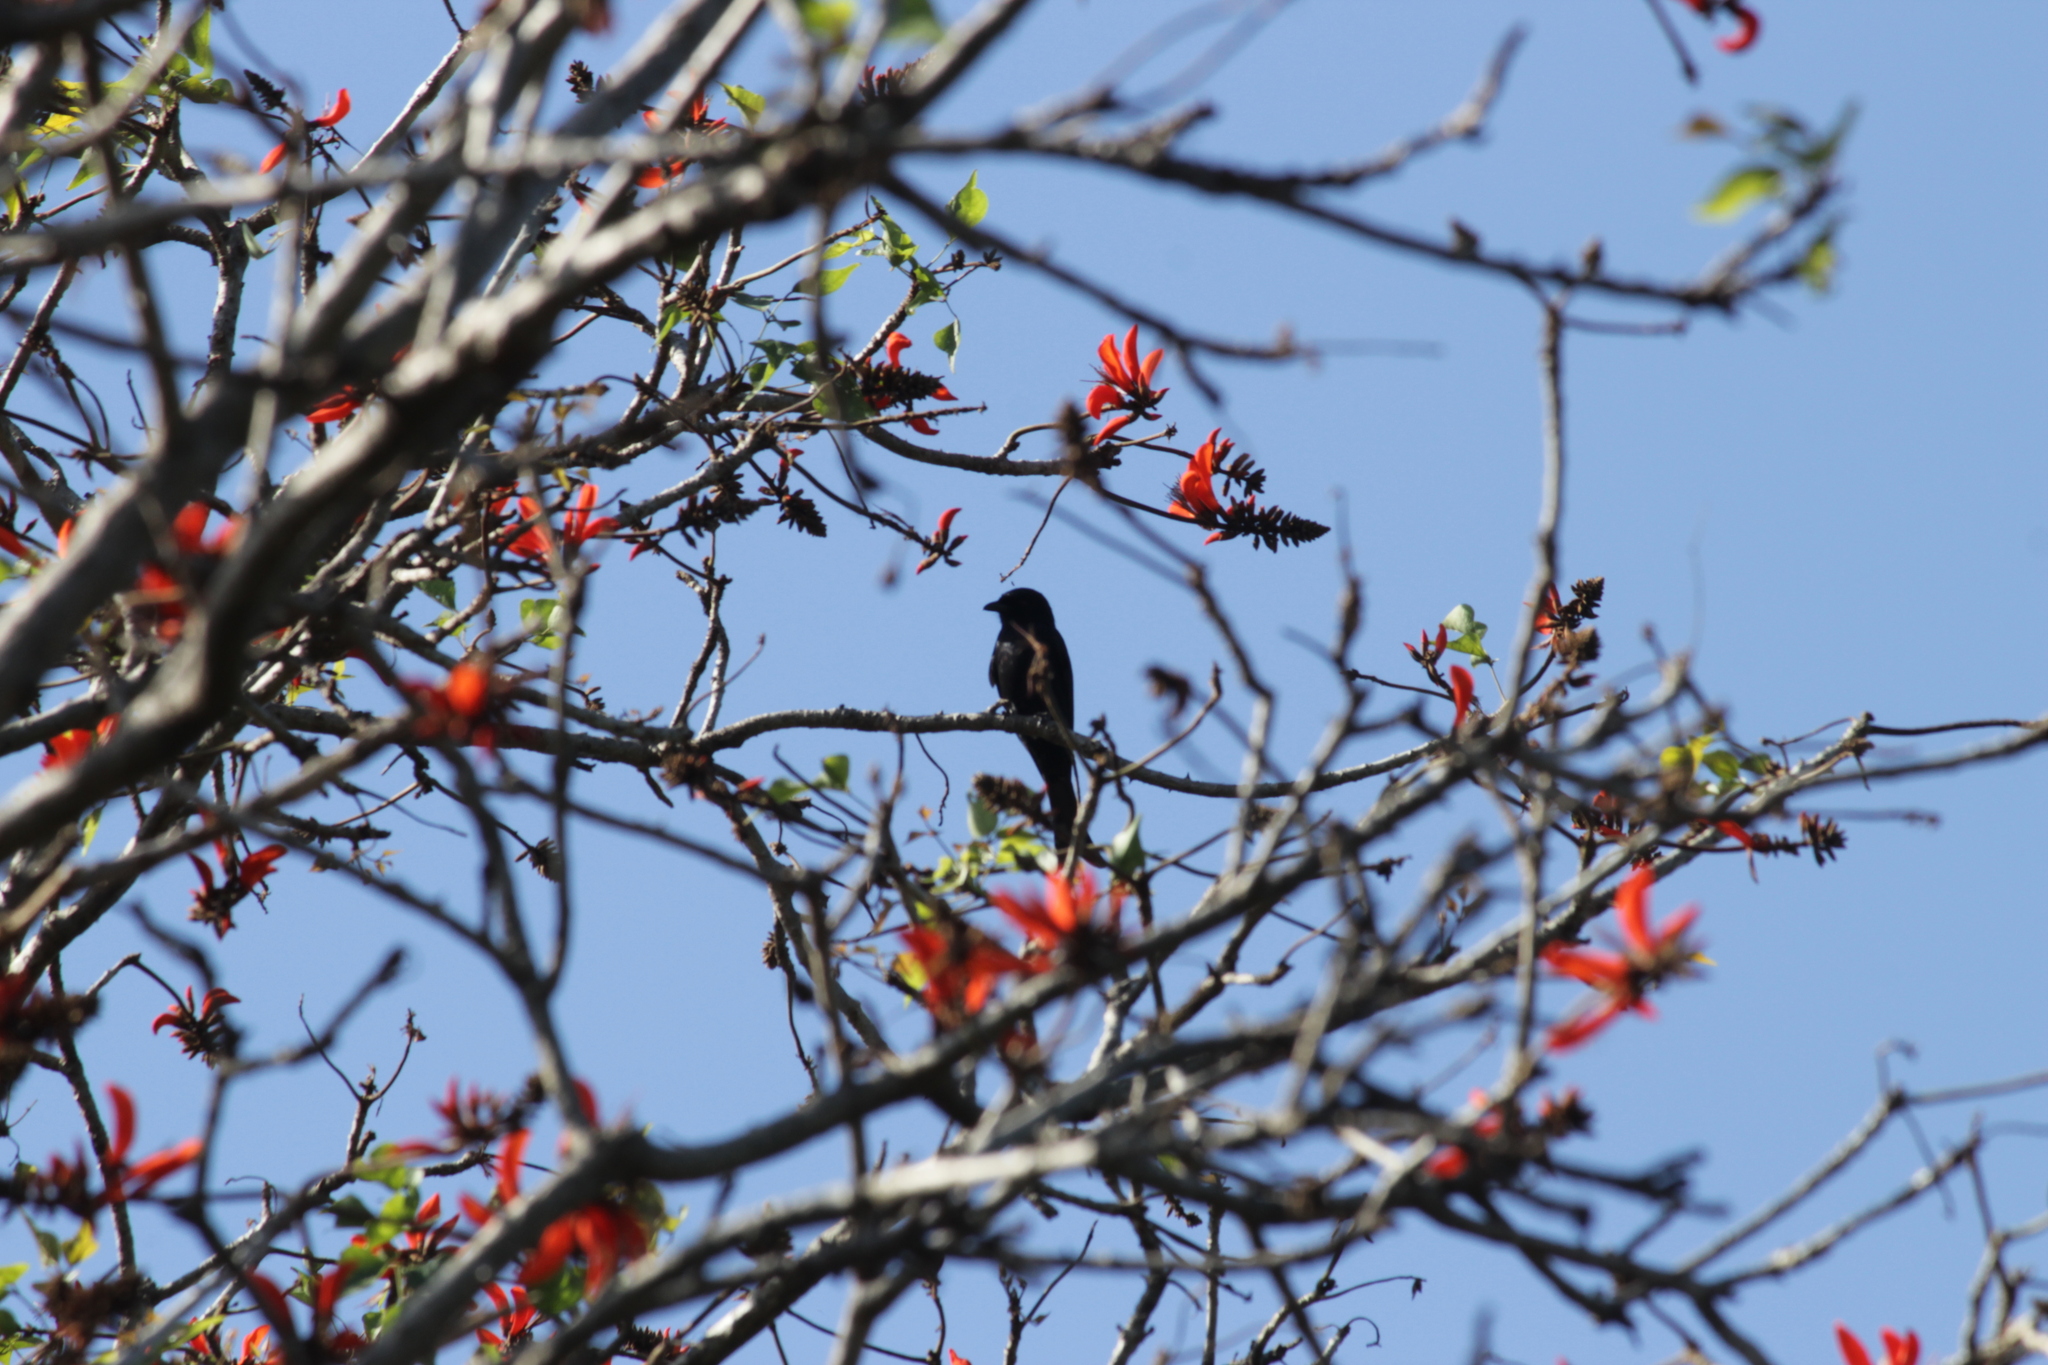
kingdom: Animalia
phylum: Chordata
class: Aves
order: Passeriformes
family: Dicruridae
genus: Dicrurus
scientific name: Dicrurus adsimilis
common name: Fork-tailed drongo
